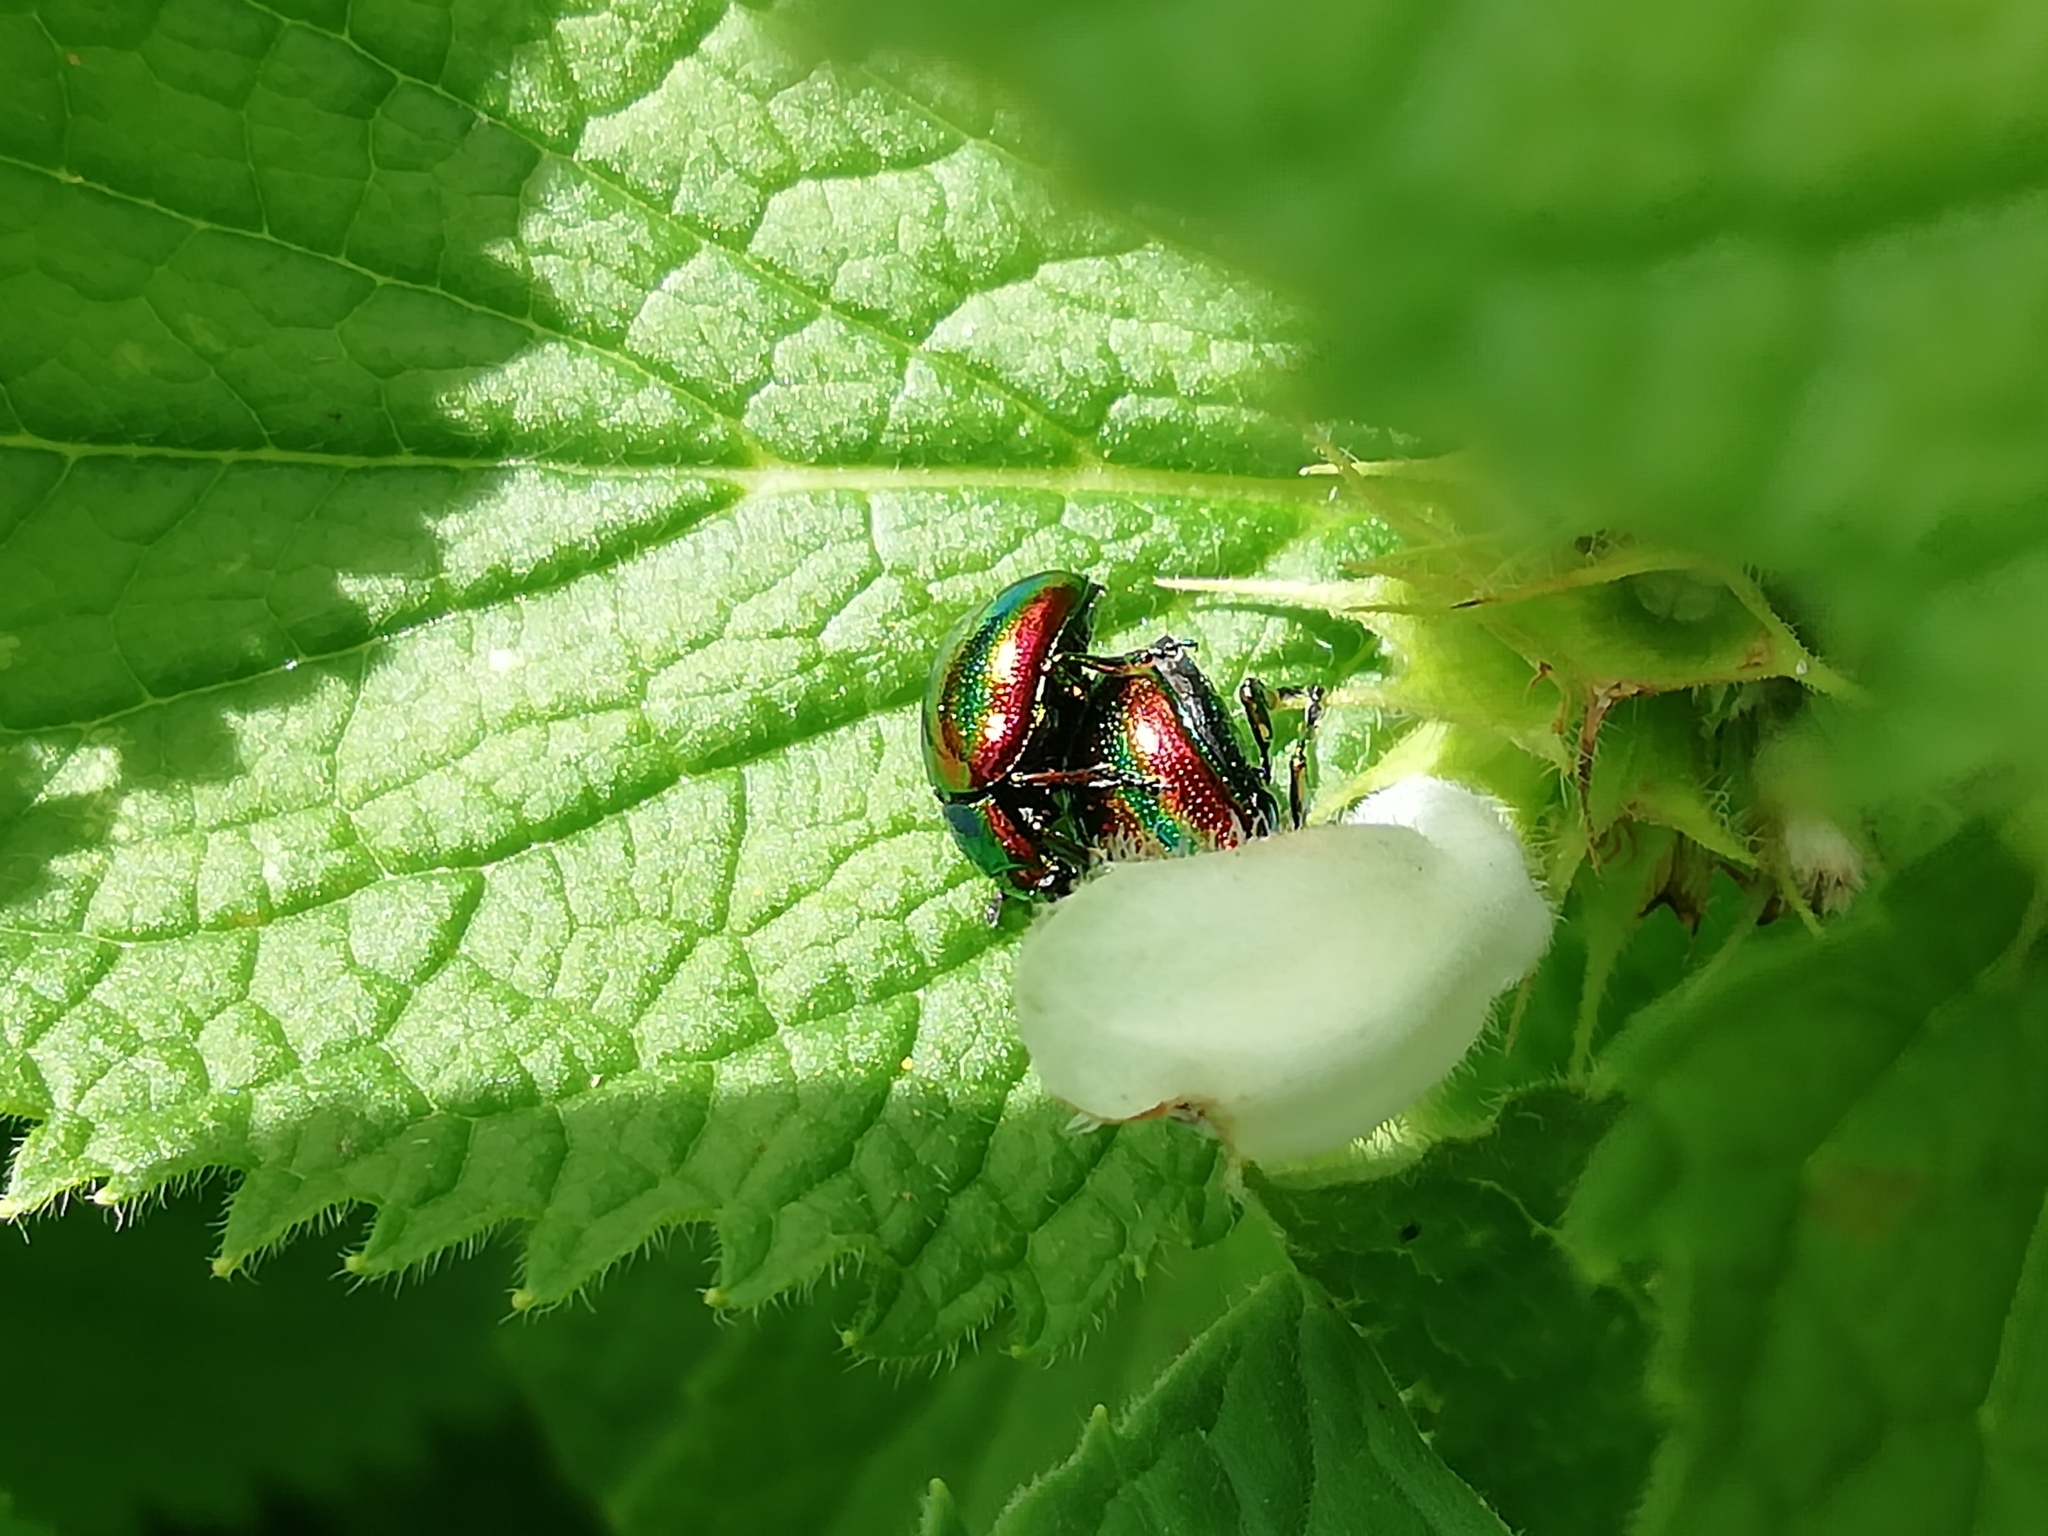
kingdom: Animalia
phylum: Arthropoda
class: Insecta
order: Coleoptera
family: Chrysomelidae
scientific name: Chrysomelidae
